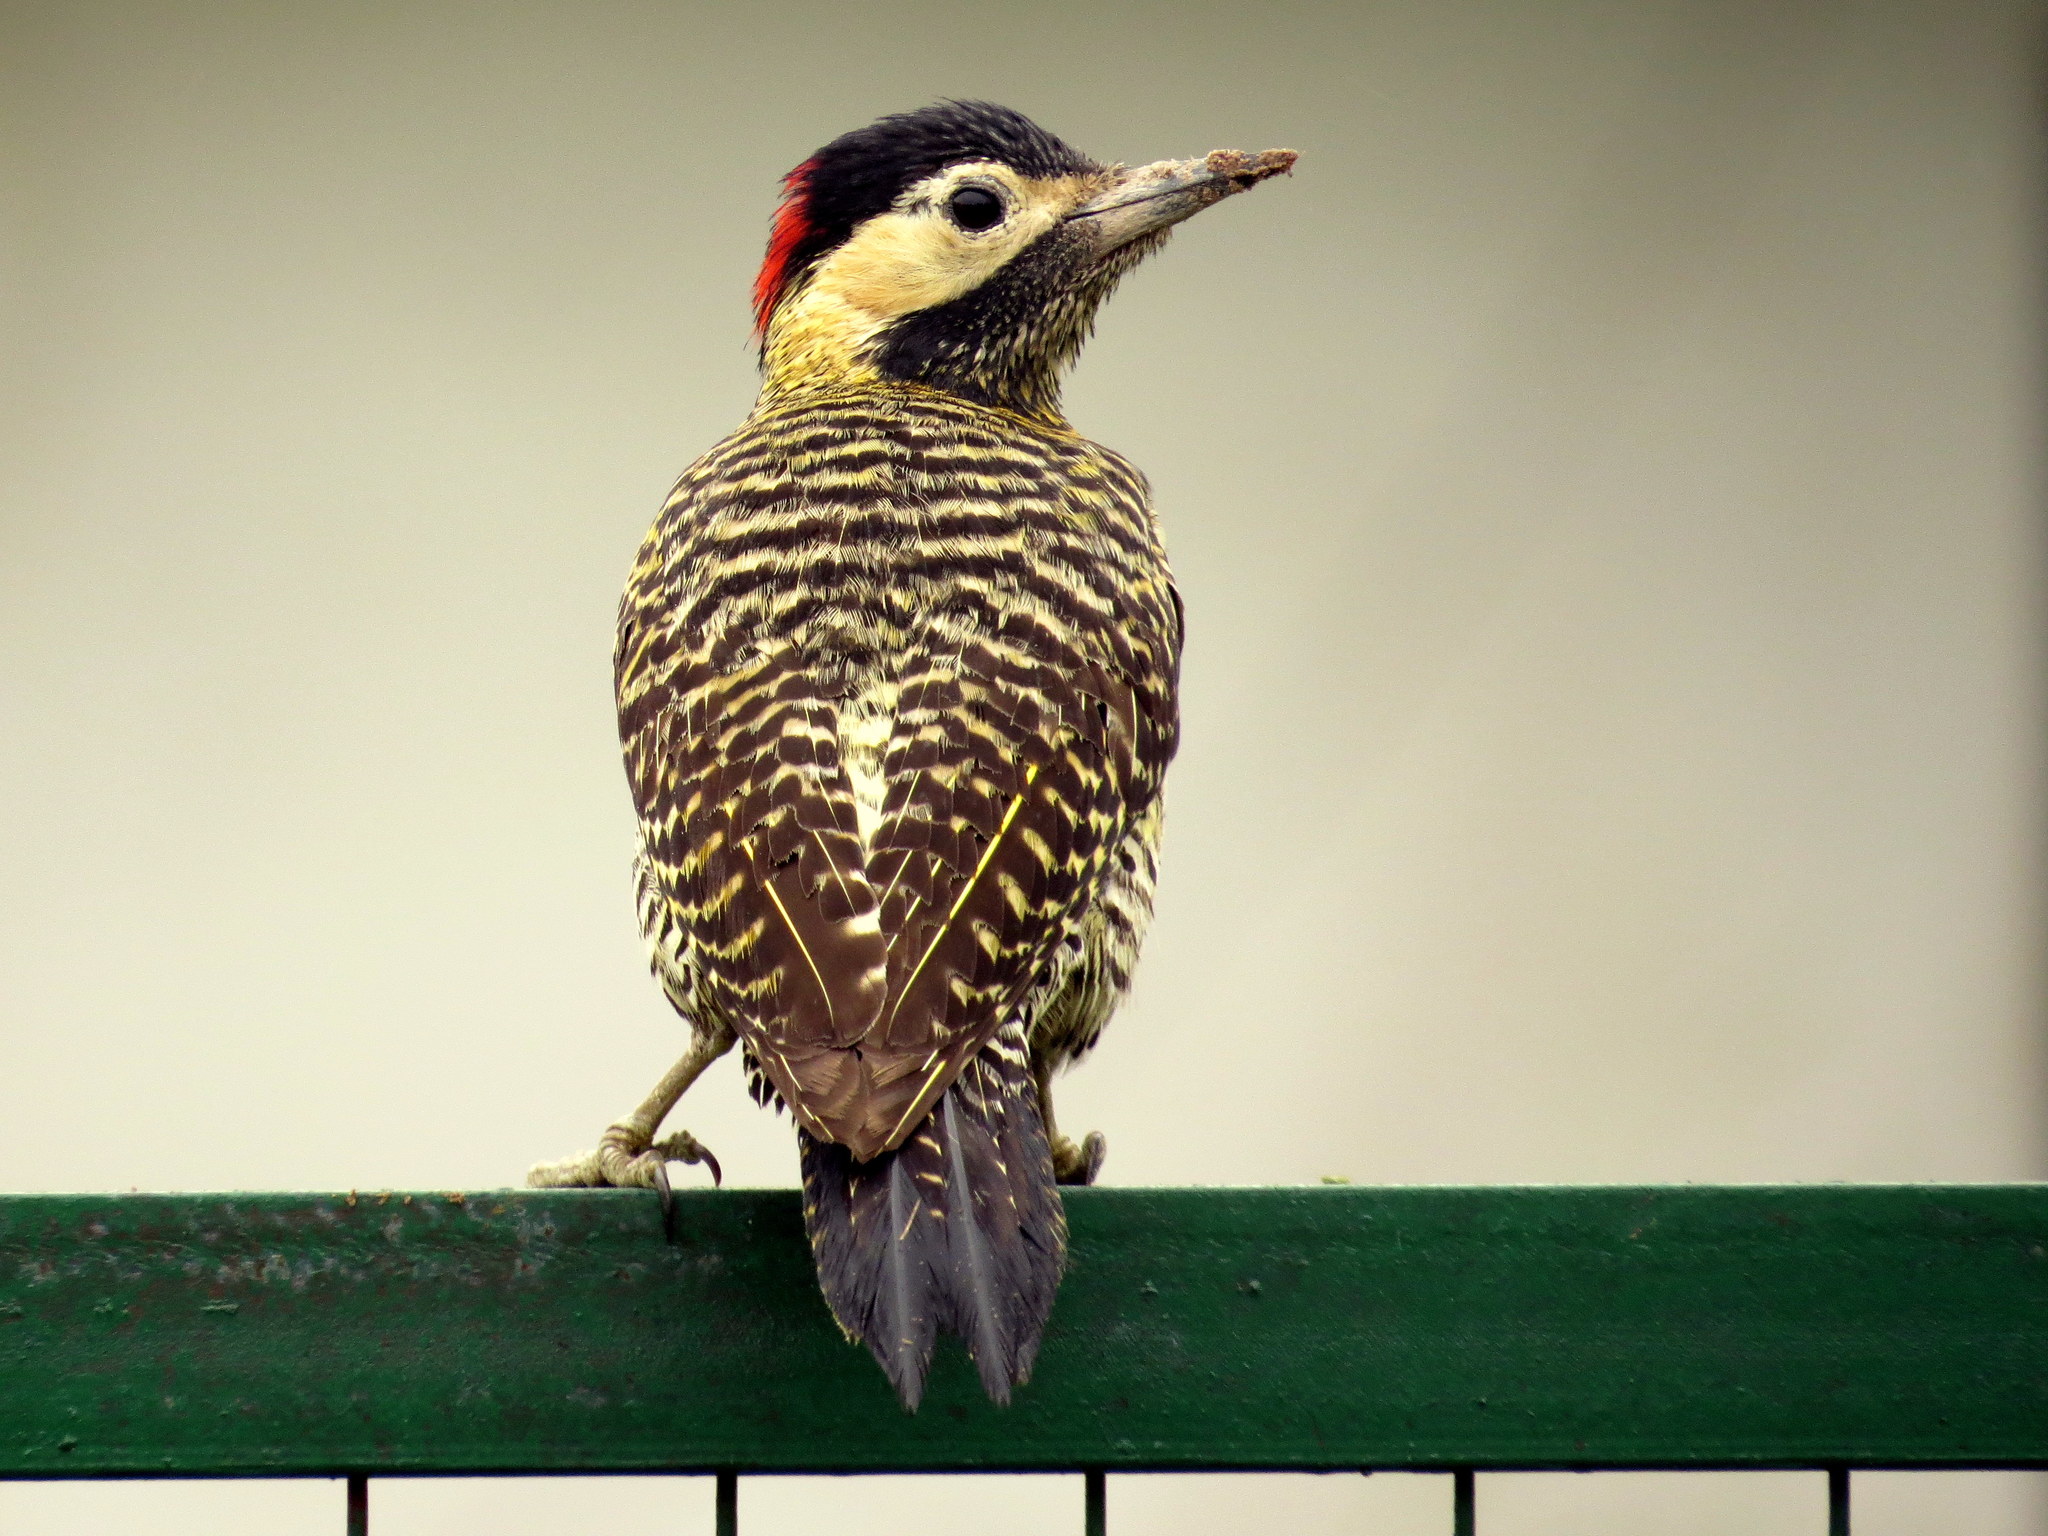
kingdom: Animalia
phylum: Chordata
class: Aves
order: Piciformes
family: Picidae
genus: Colaptes
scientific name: Colaptes melanochloros
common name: Green-barred woodpecker
